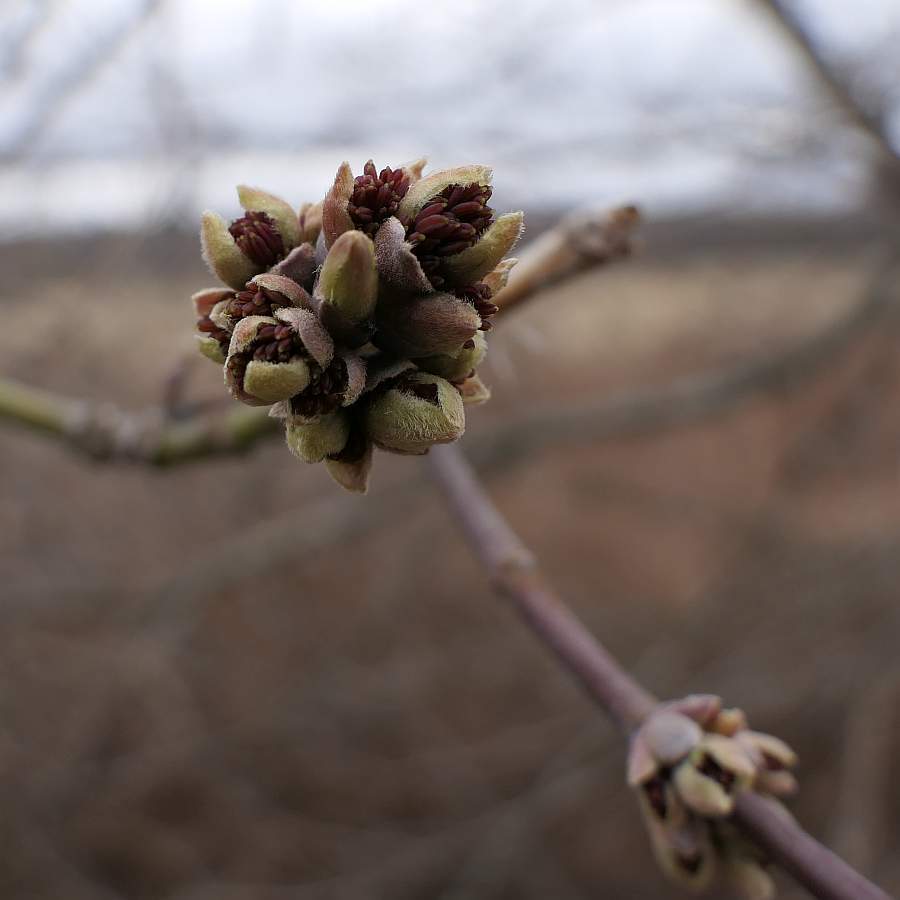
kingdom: Plantae
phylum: Tracheophyta
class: Magnoliopsida
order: Sapindales
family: Sapindaceae
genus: Acer
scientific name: Acer negundo
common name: Ashleaf maple
